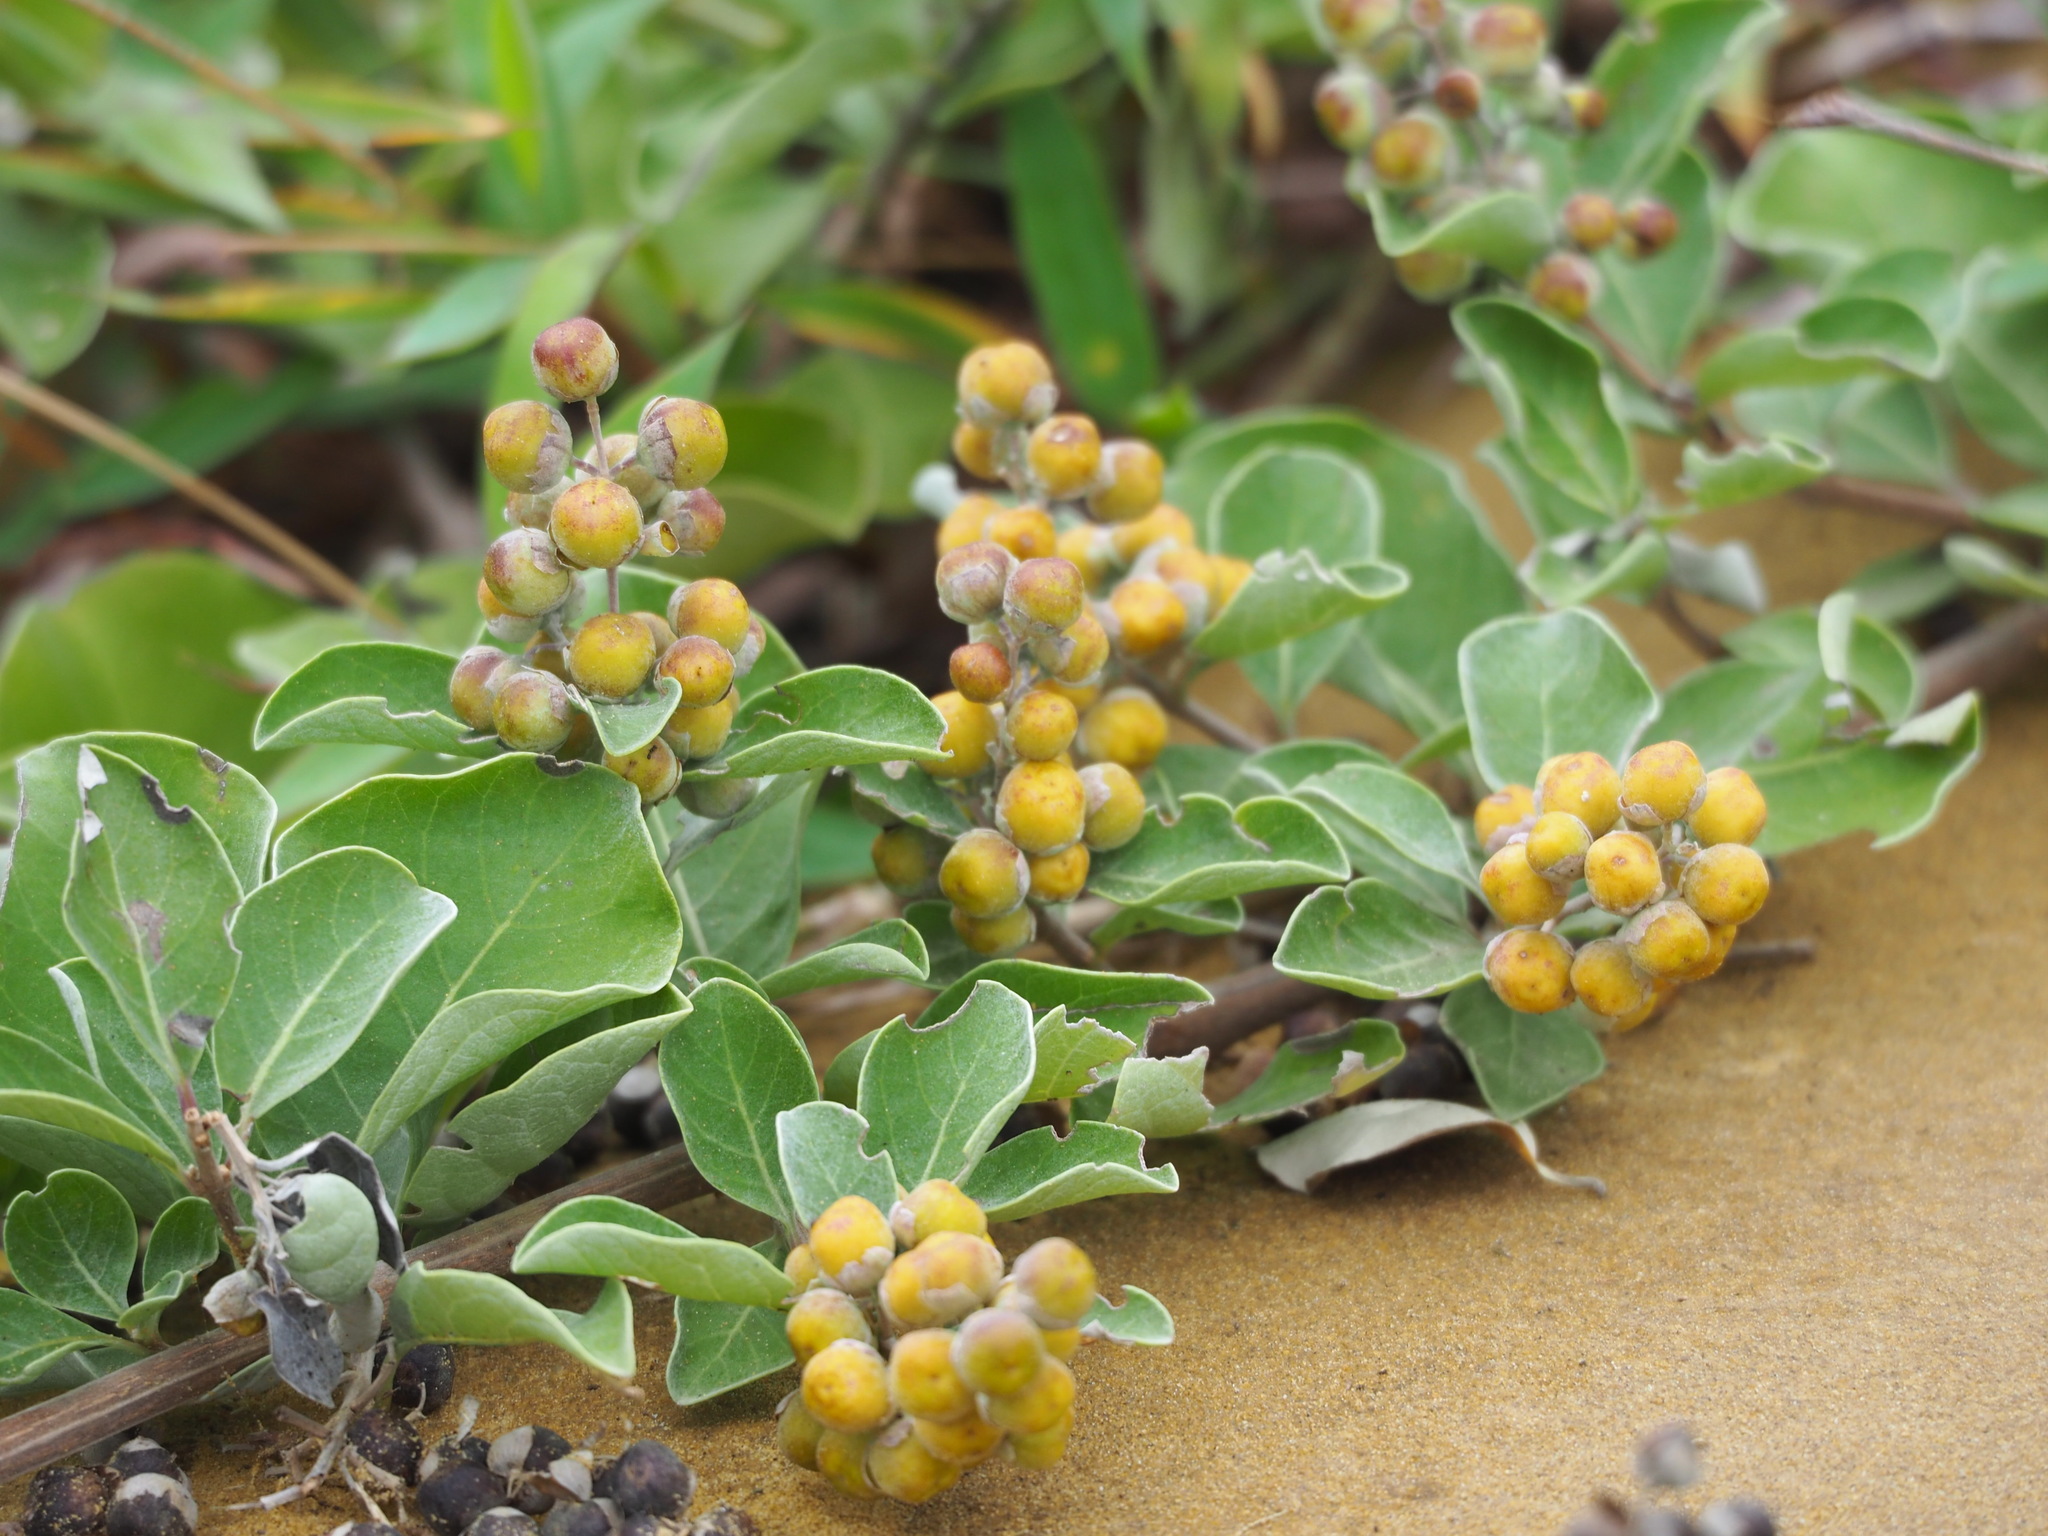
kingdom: Plantae
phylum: Tracheophyta
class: Magnoliopsida
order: Lamiales
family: Lamiaceae
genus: Vitex
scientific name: Vitex rotundifolia
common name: Beach vitex
